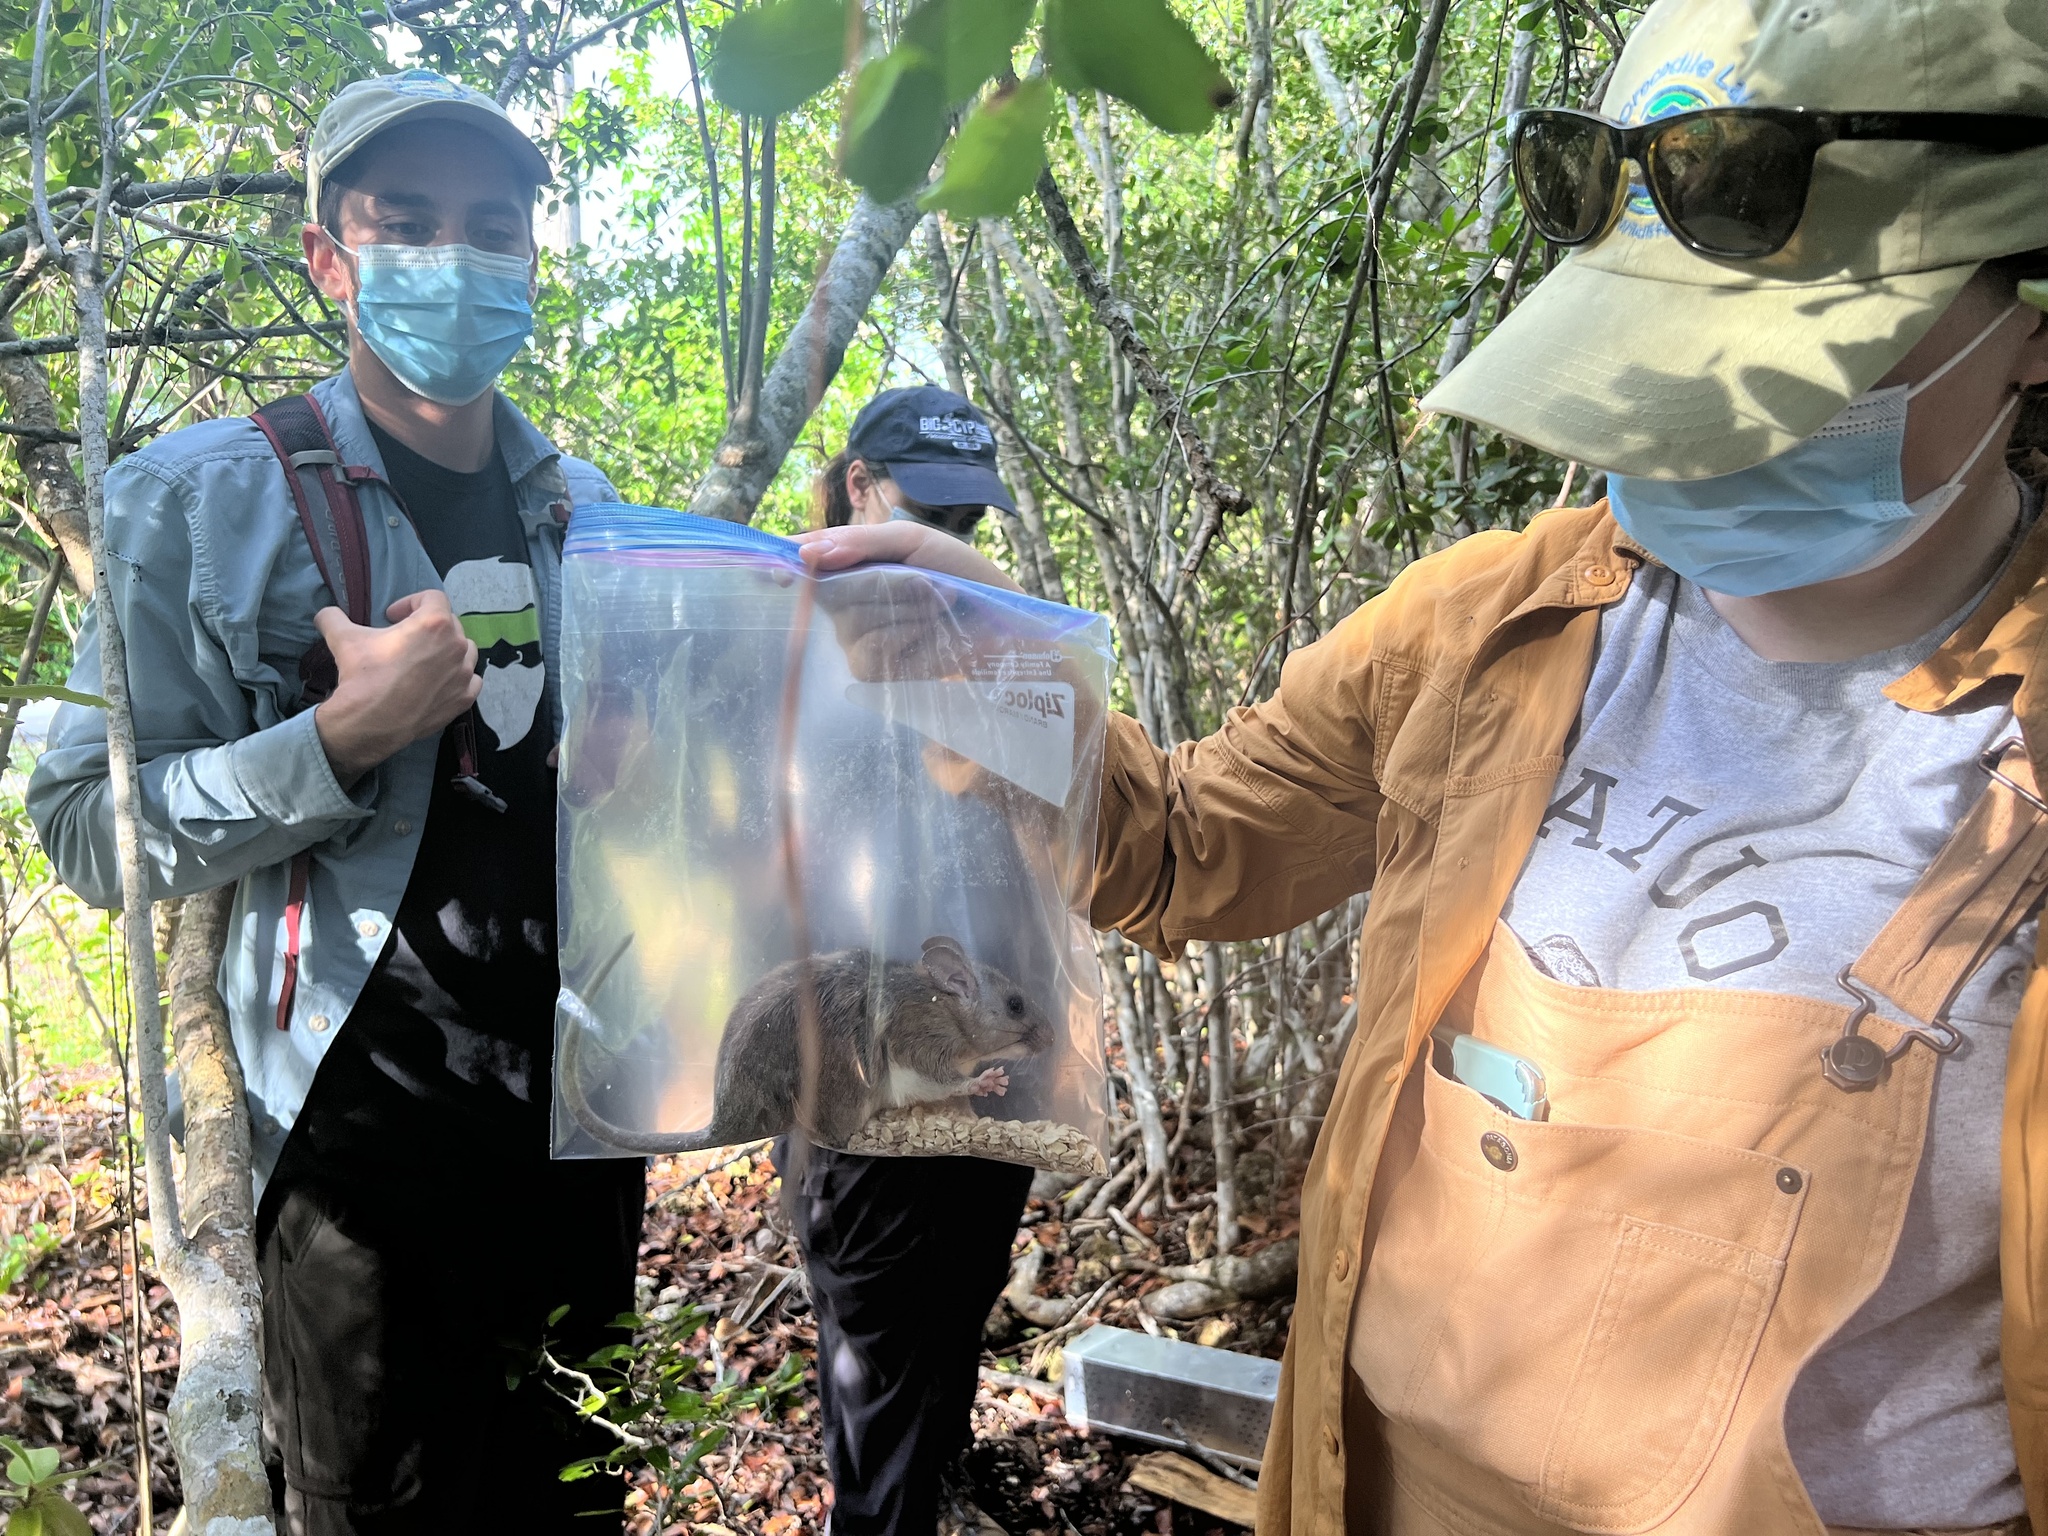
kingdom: Animalia
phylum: Chordata
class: Mammalia
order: Rodentia
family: Cricetidae
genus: Neotoma
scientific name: Neotoma floridana
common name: Eastern woodrat
